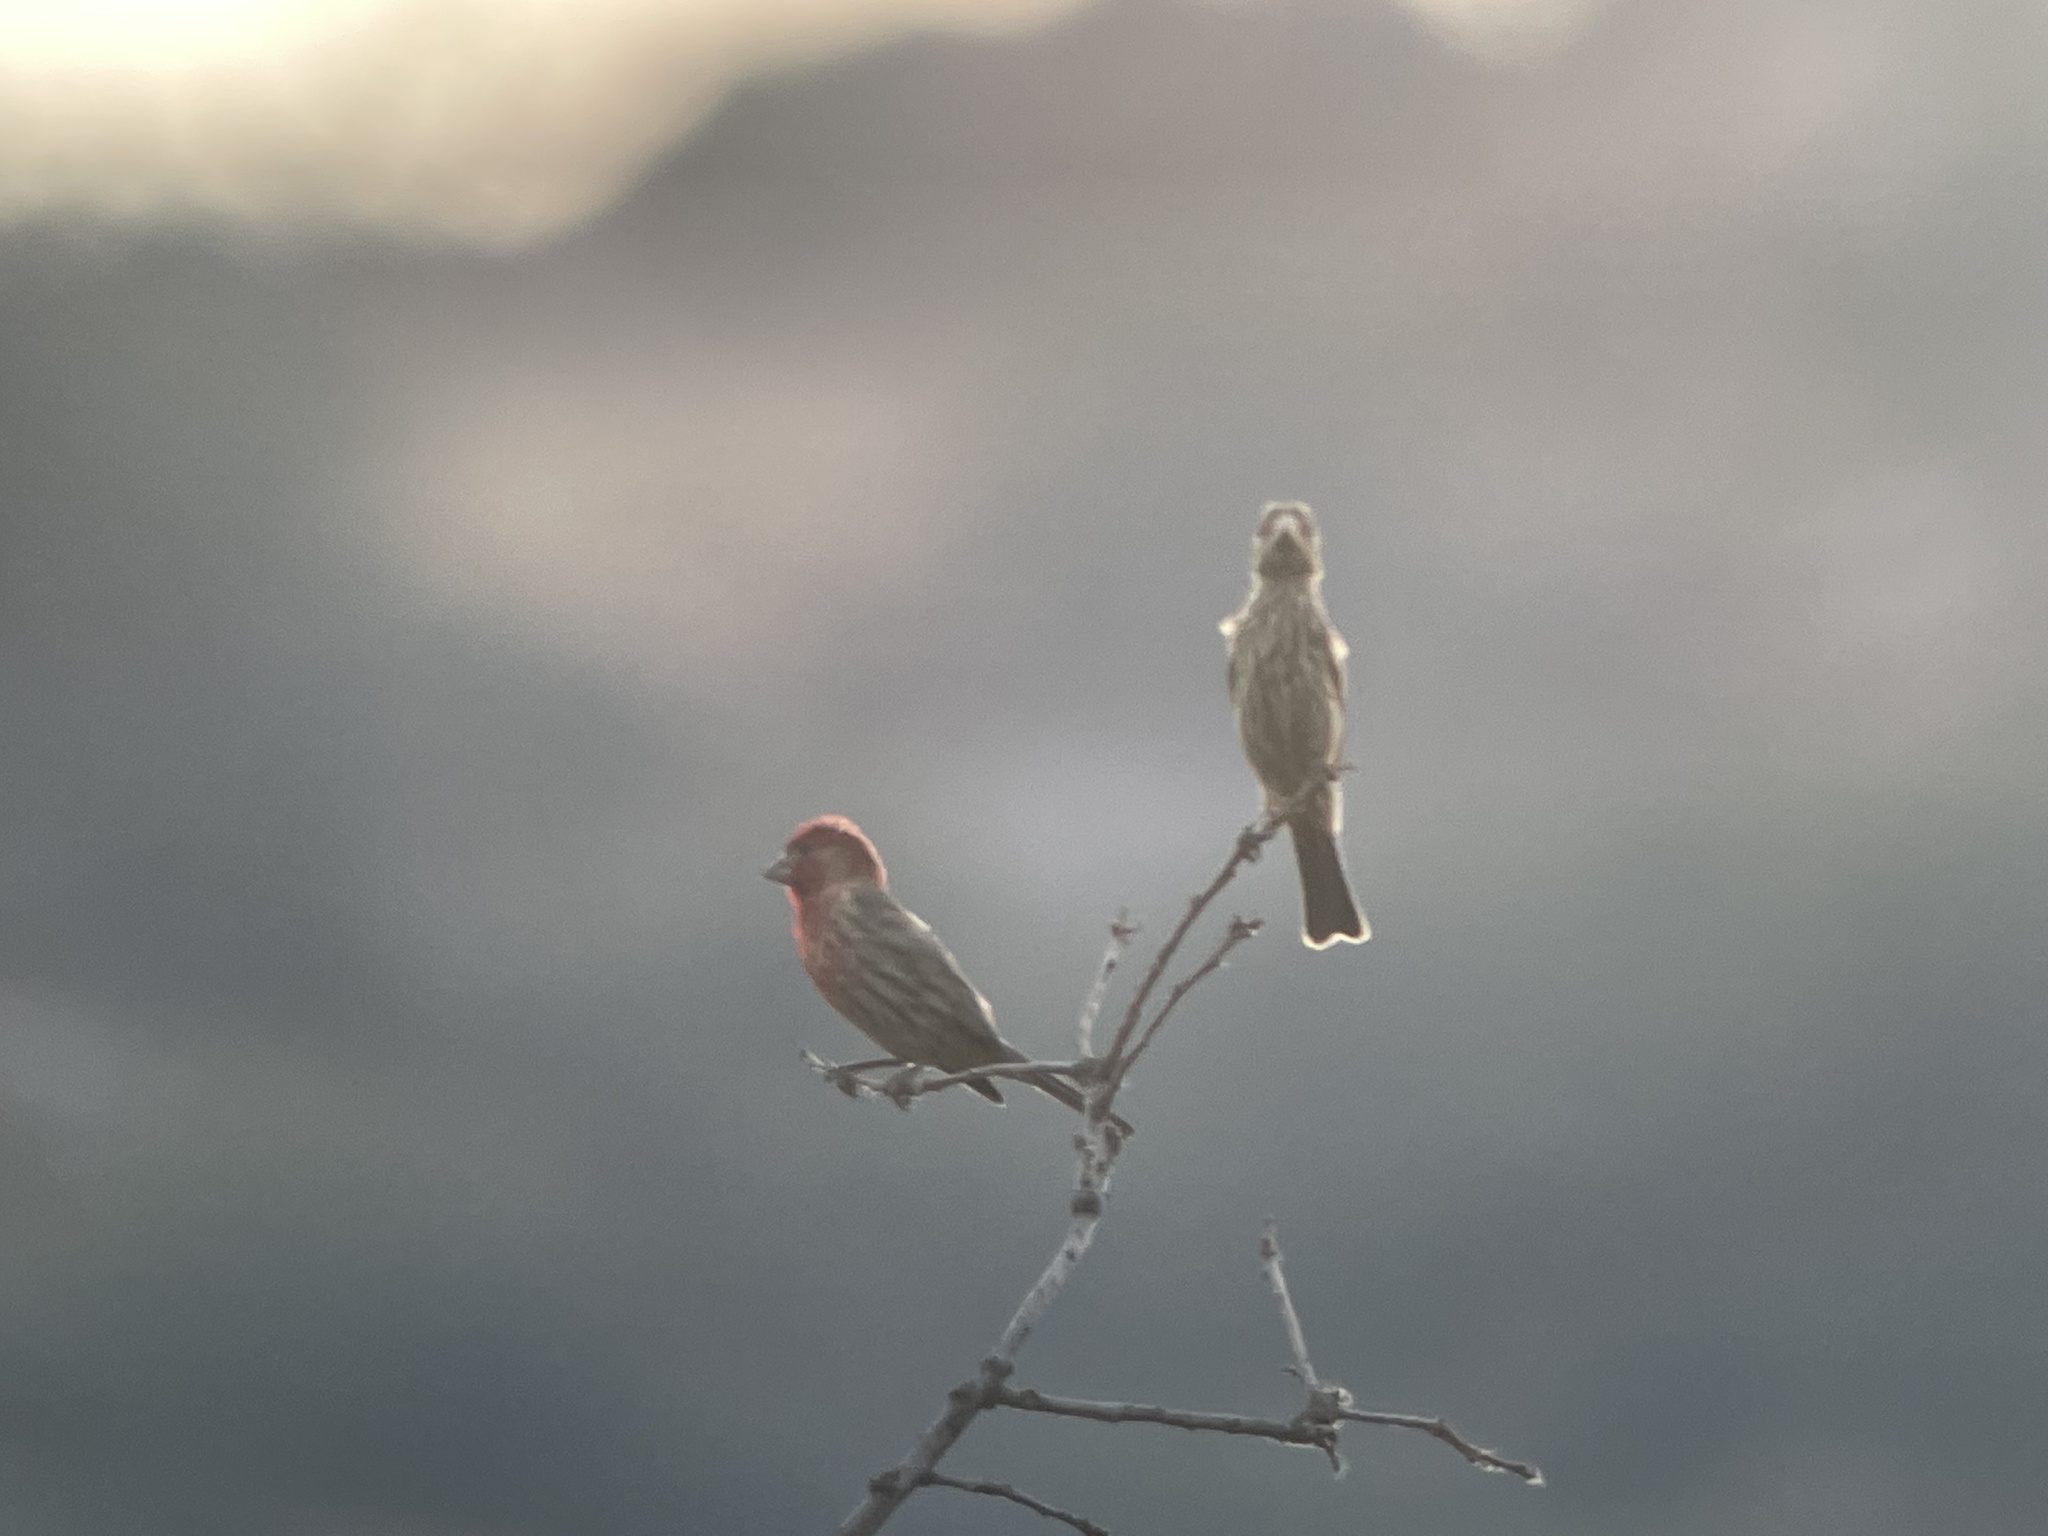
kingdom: Animalia
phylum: Chordata
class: Aves
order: Passeriformes
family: Fringillidae
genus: Haemorhous
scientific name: Haemorhous mexicanus
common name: House finch
